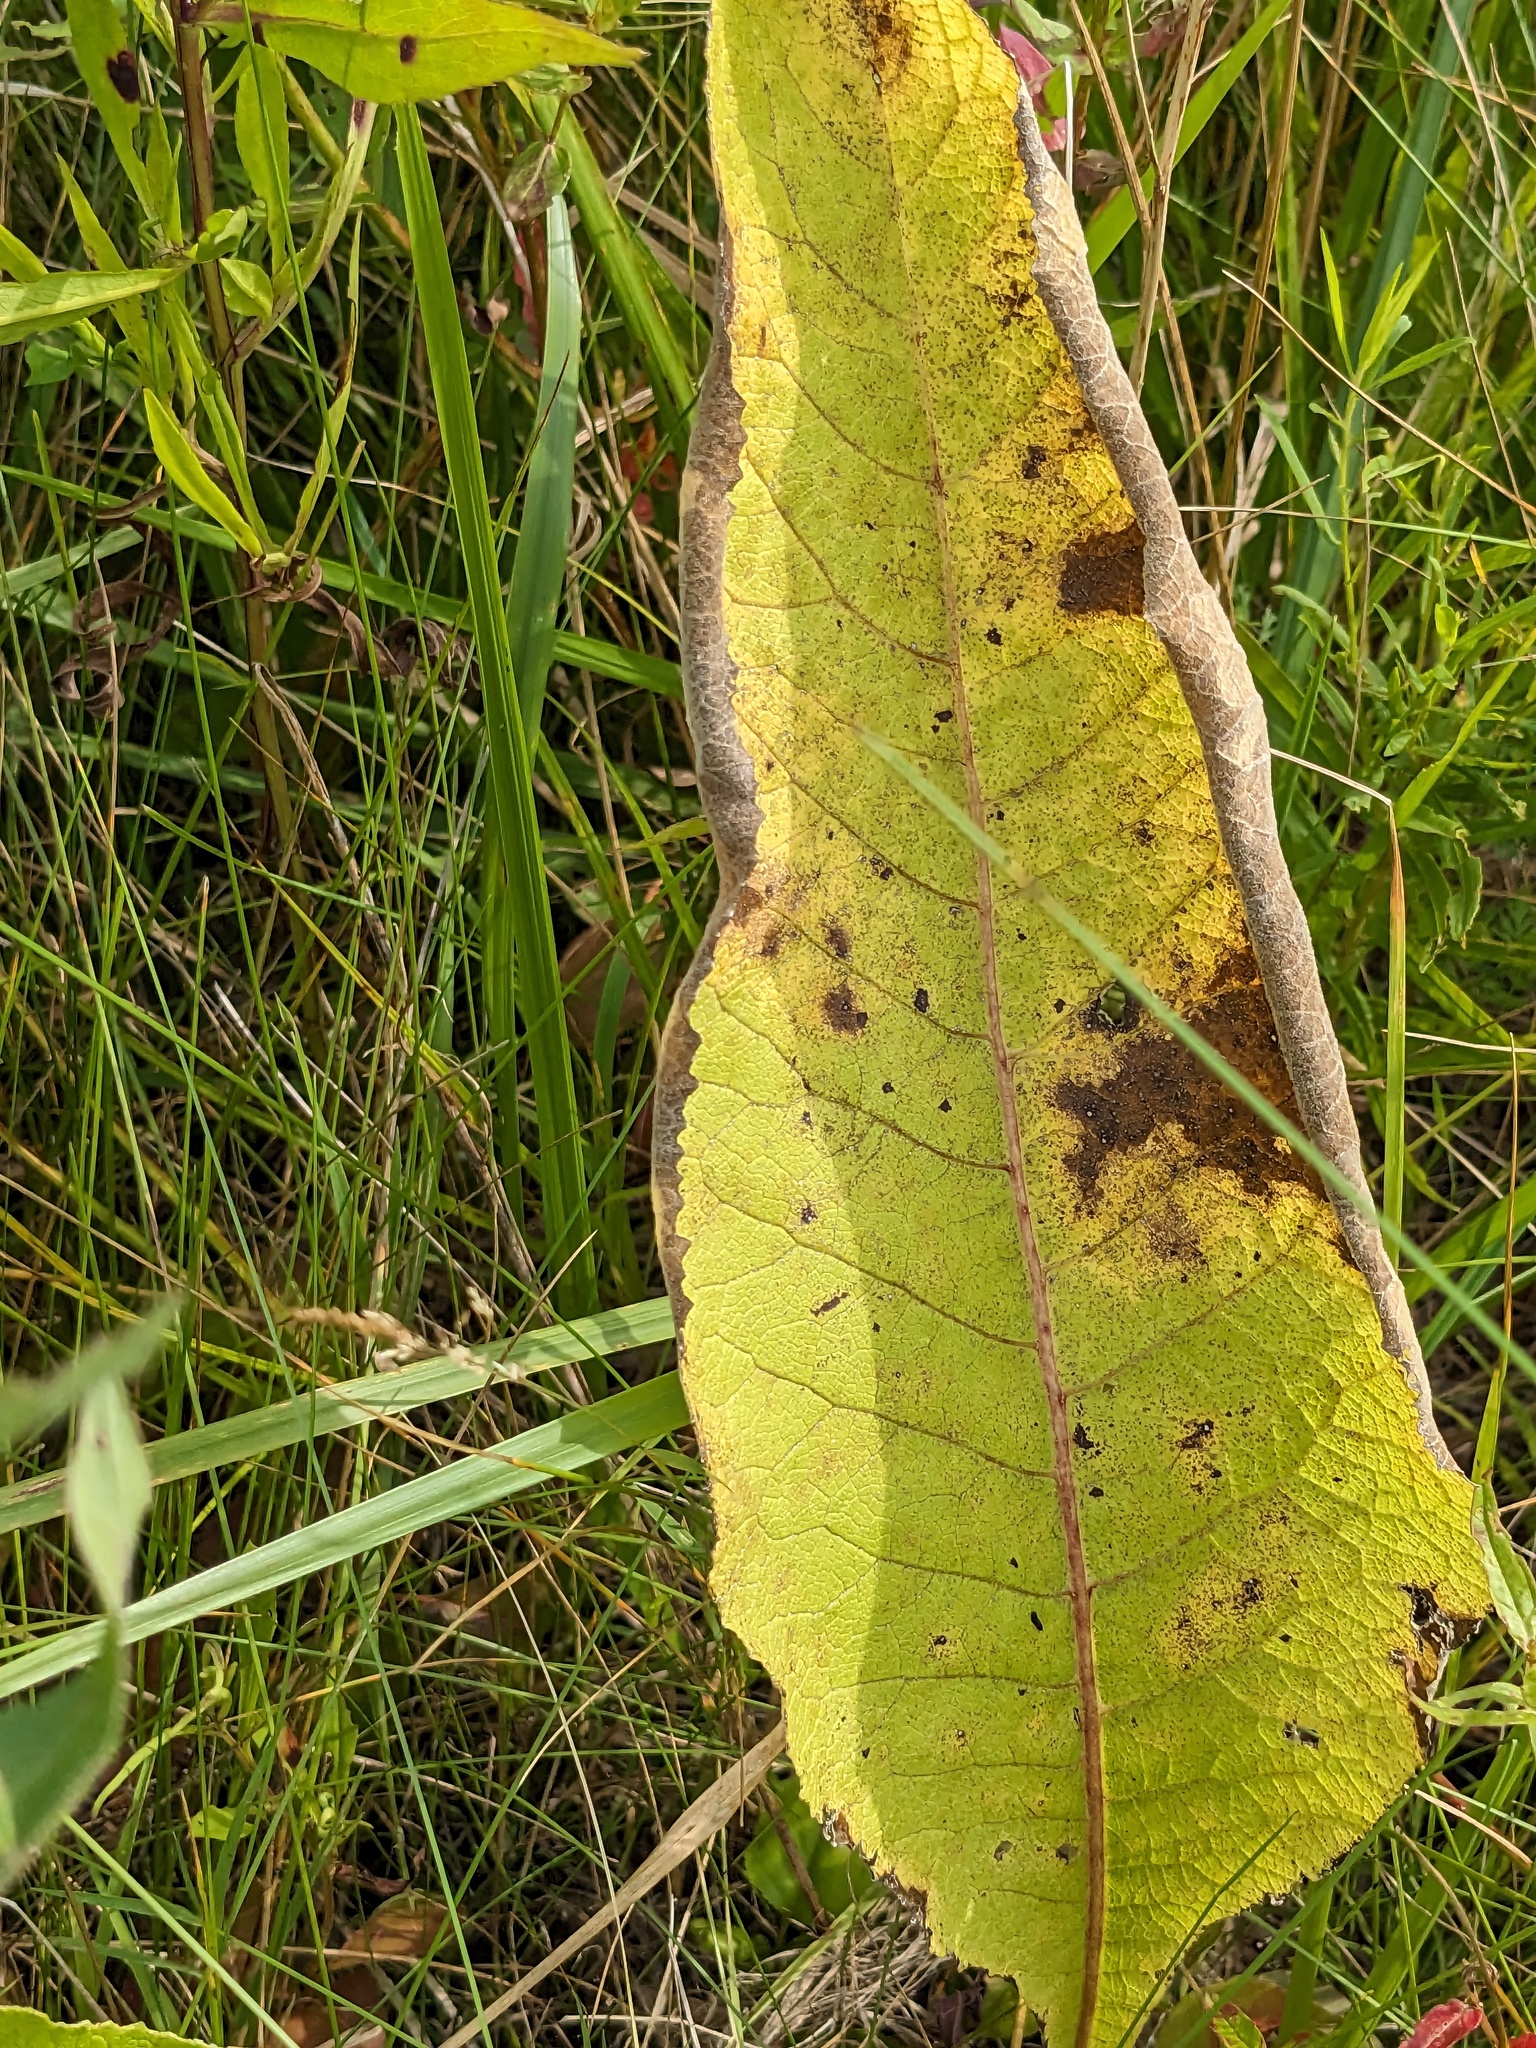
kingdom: Plantae
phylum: Tracheophyta
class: Magnoliopsida
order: Asterales
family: Asteraceae
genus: Inula
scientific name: Inula helenium
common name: Elecampane
